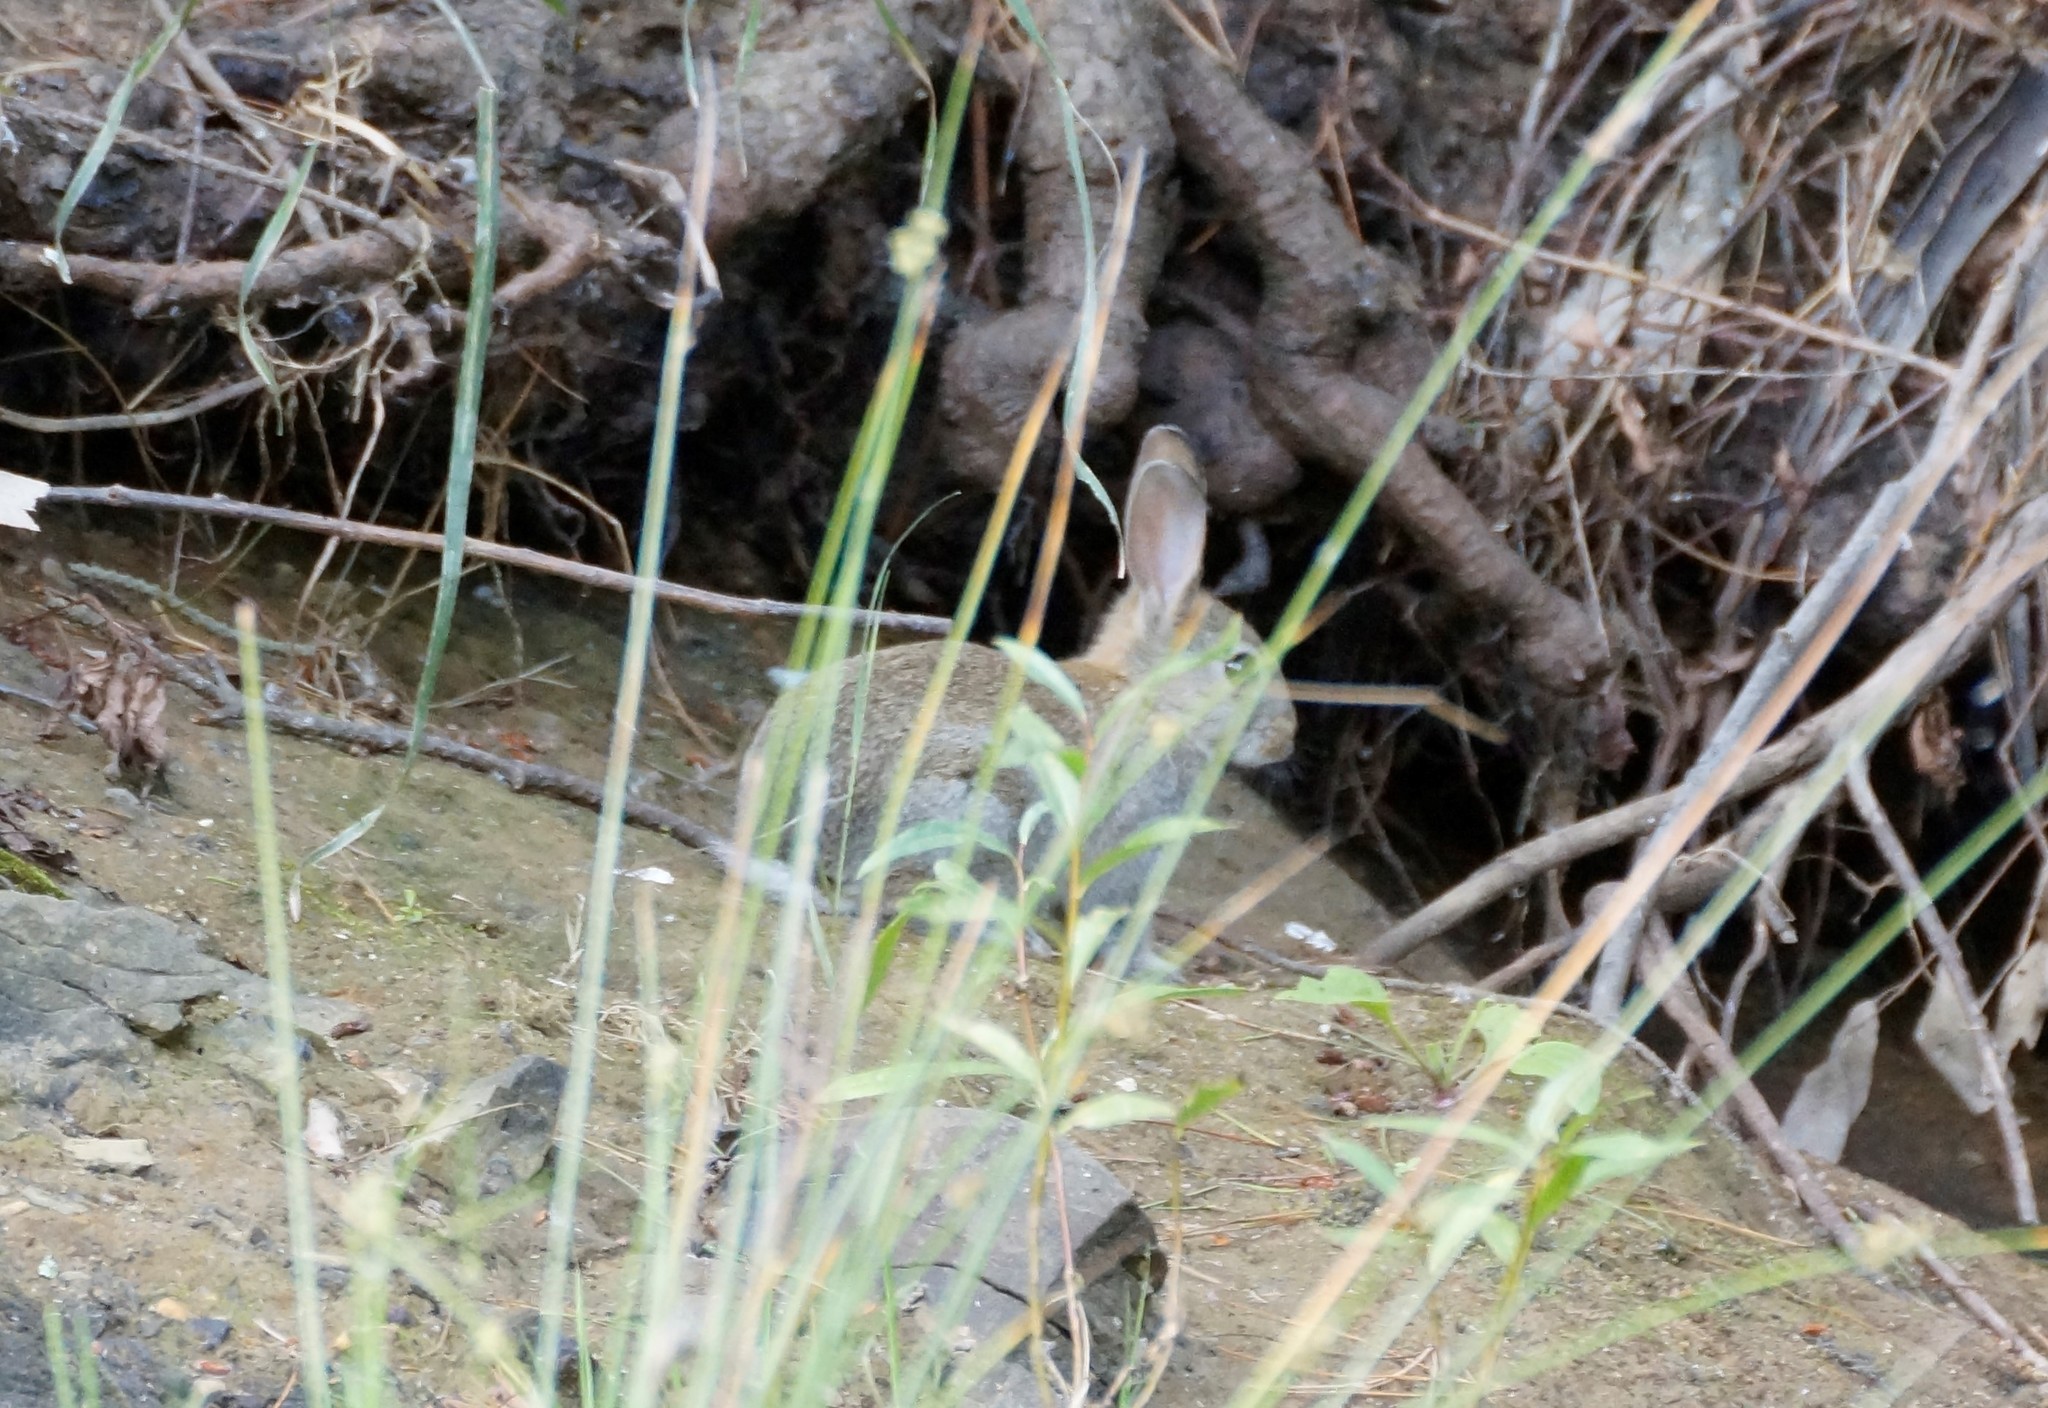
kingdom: Animalia
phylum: Chordata
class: Mammalia
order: Lagomorpha
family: Leporidae
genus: Oryctolagus
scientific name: Oryctolagus cuniculus
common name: European rabbit
